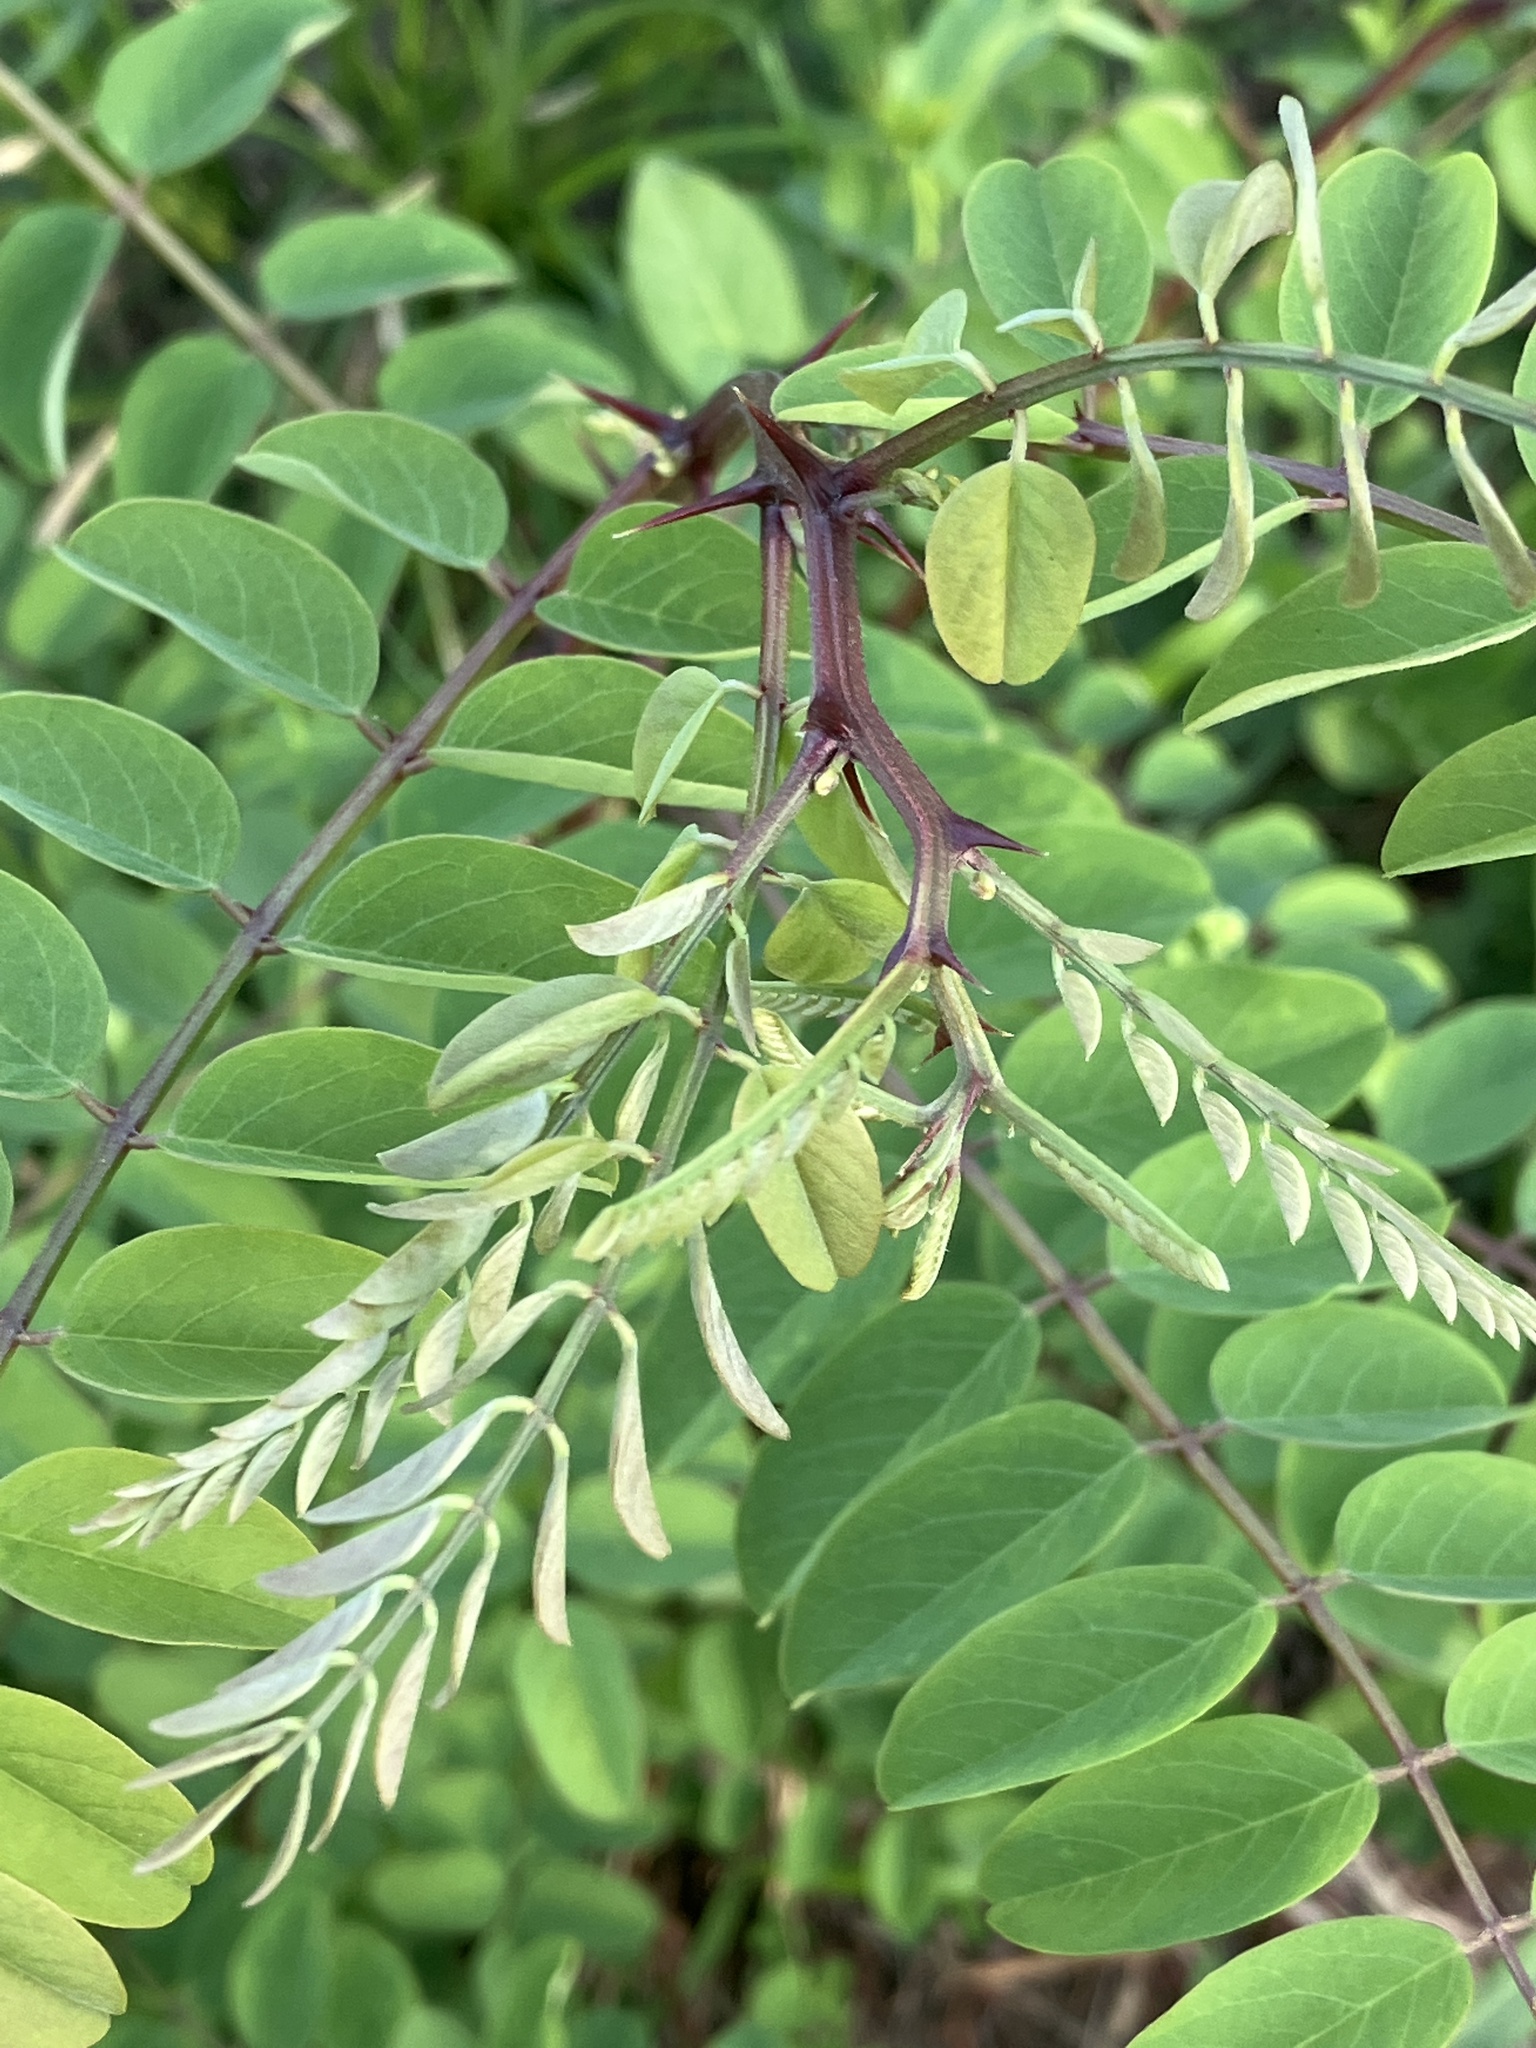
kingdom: Plantae
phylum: Tracheophyta
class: Magnoliopsida
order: Fabales
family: Fabaceae
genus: Robinia
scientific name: Robinia pseudoacacia
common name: Black locust
